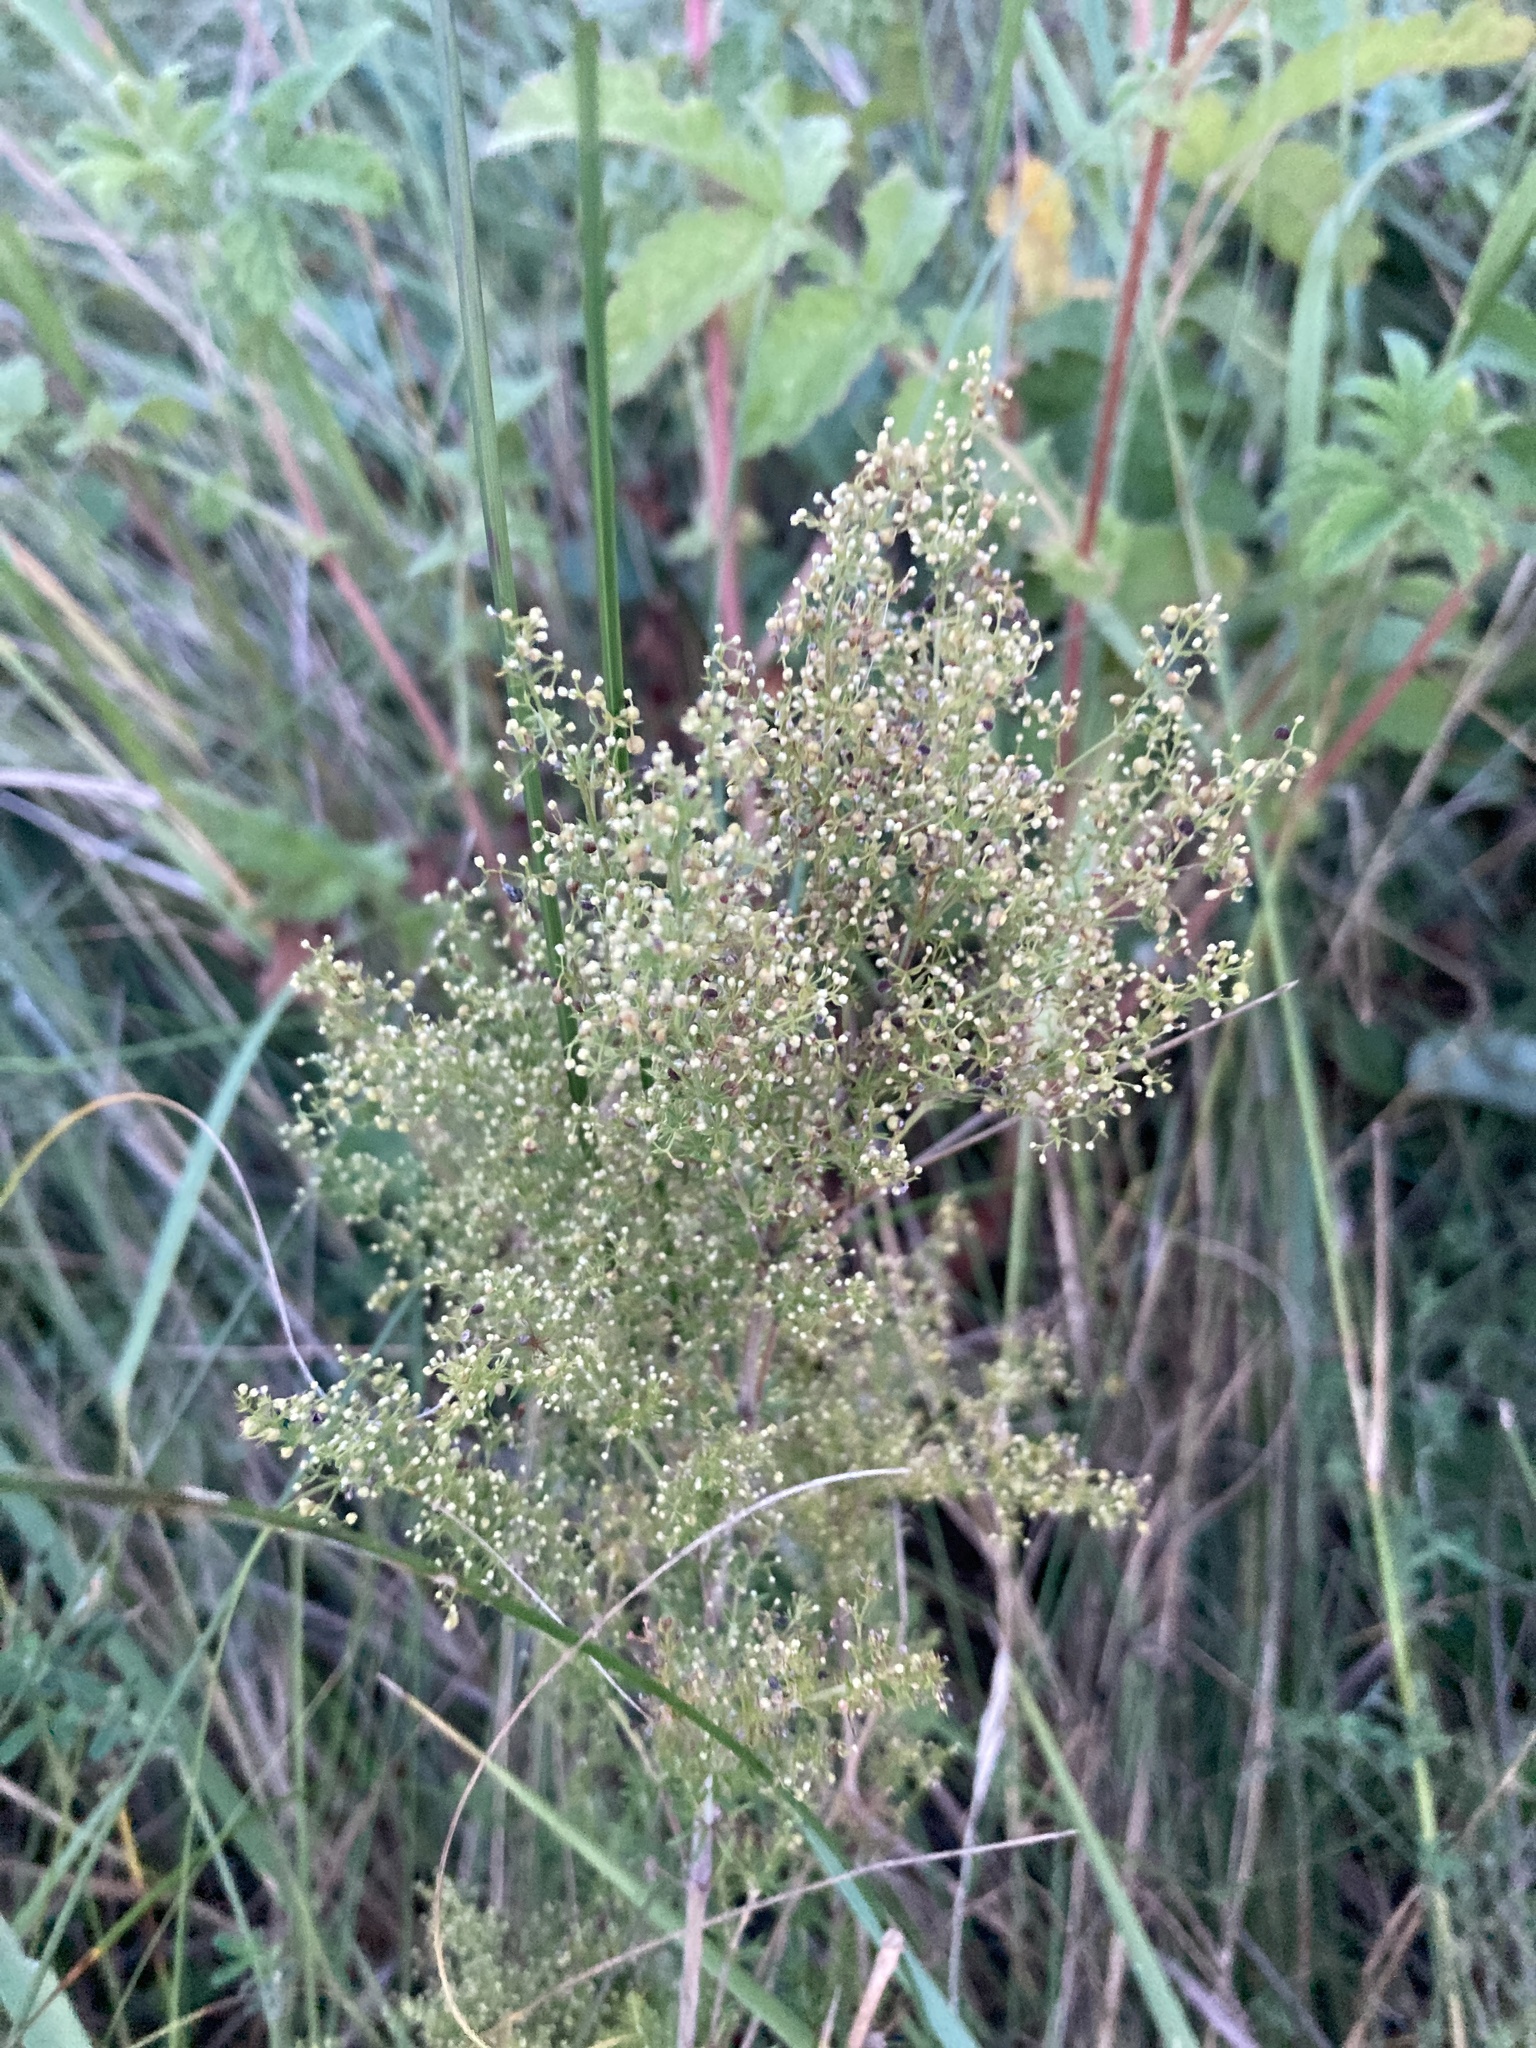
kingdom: Plantae
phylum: Tracheophyta
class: Magnoliopsida
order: Gentianales
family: Rubiaceae
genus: Galium
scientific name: Galium verum
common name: Lady's bedstraw
